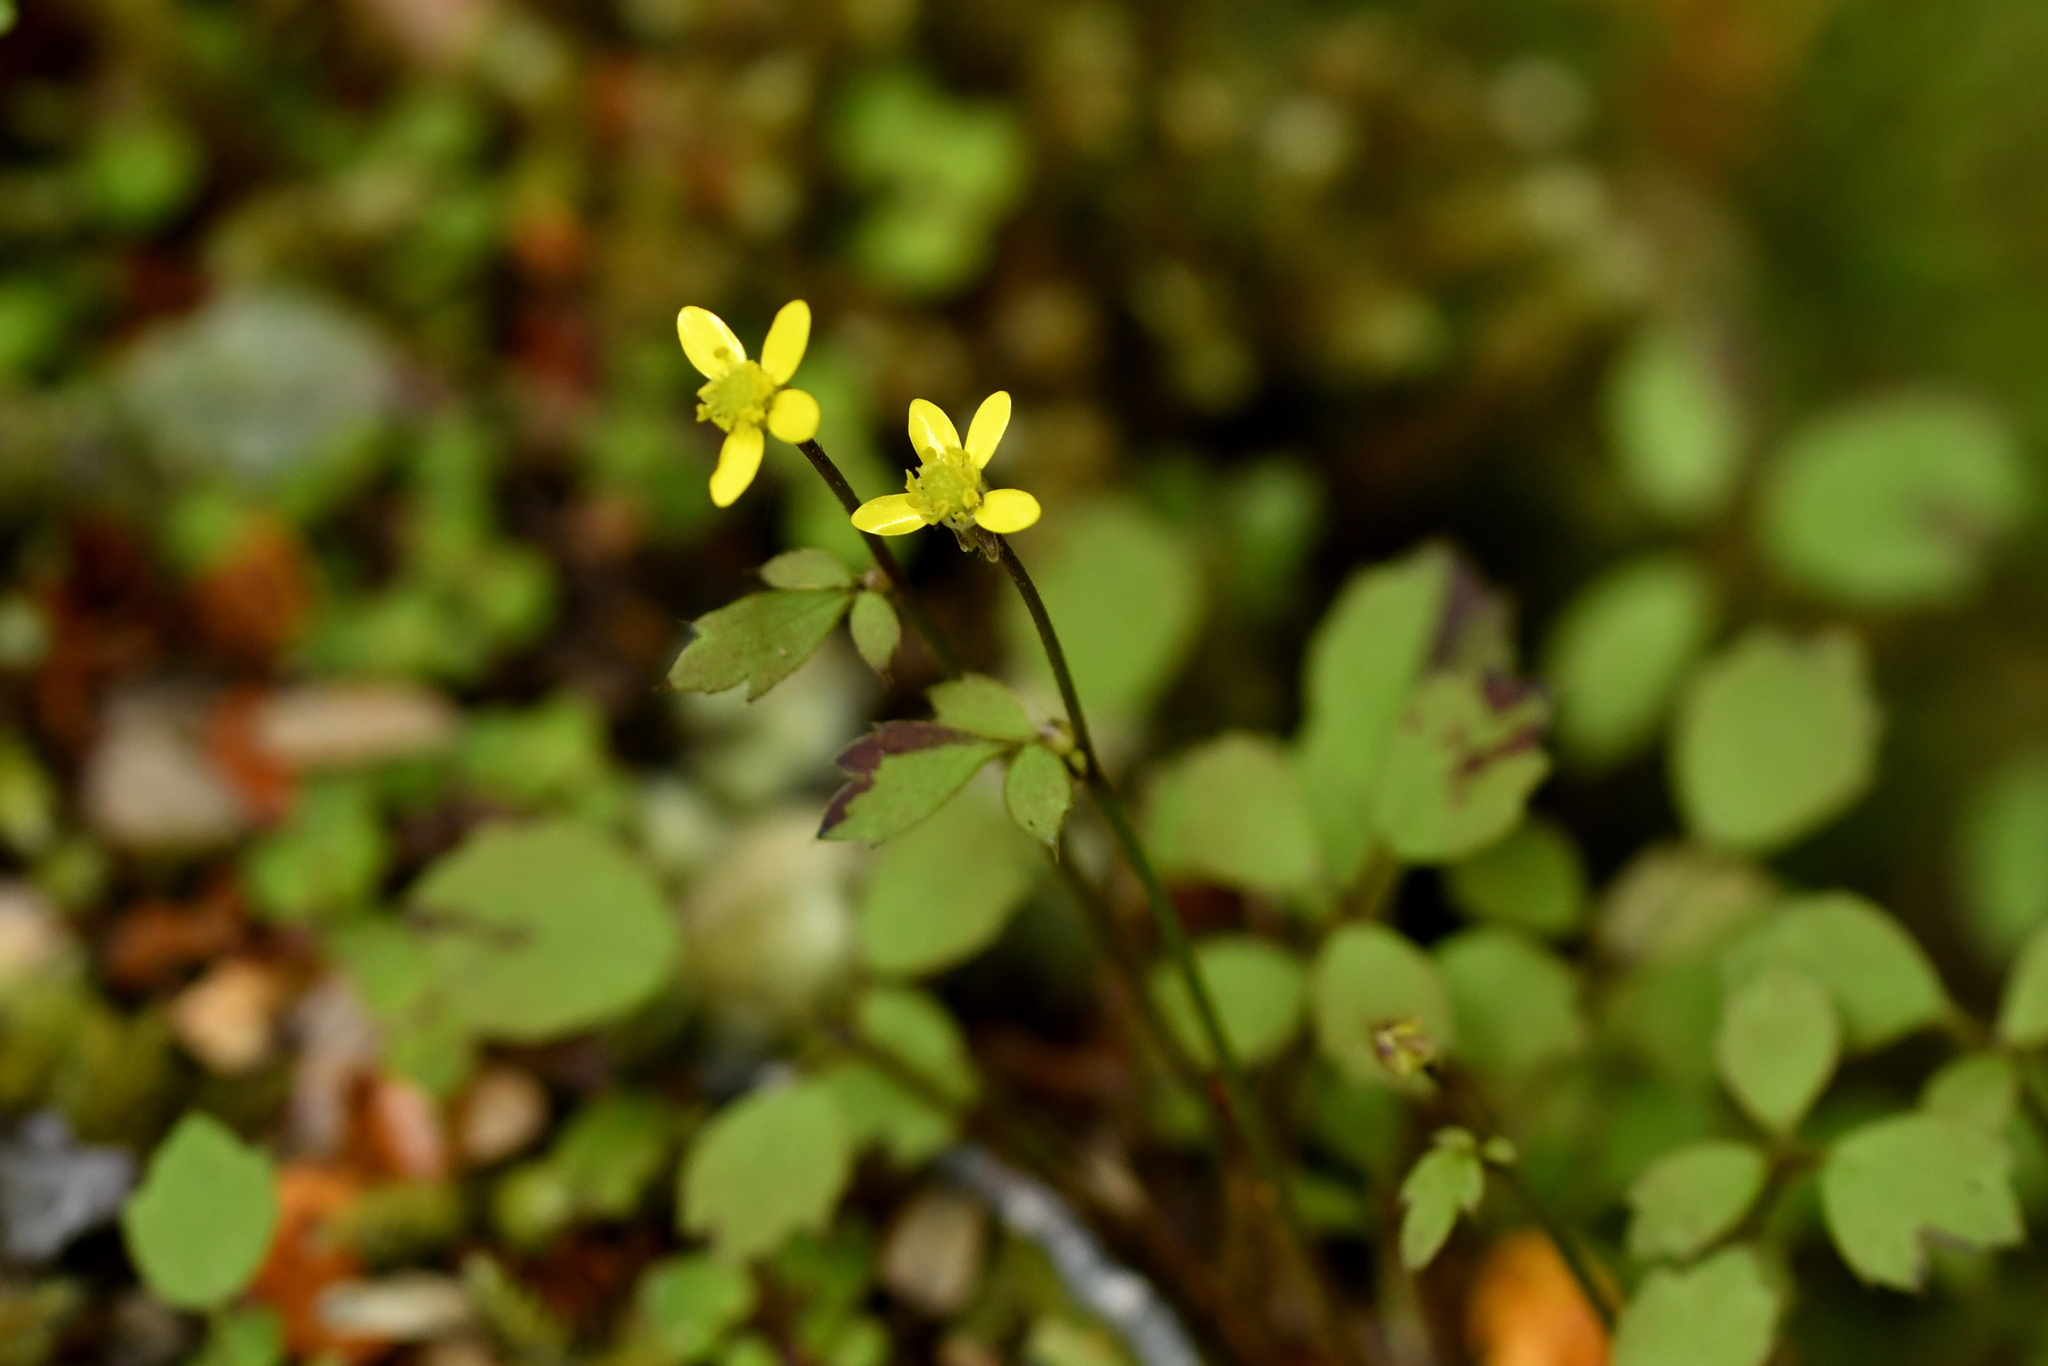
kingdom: Plantae
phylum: Tracheophyta
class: Magnoliopsida
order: Ranunculales
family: Ranunculaceae
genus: Ranunculus
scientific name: Ranunculus reflexus
